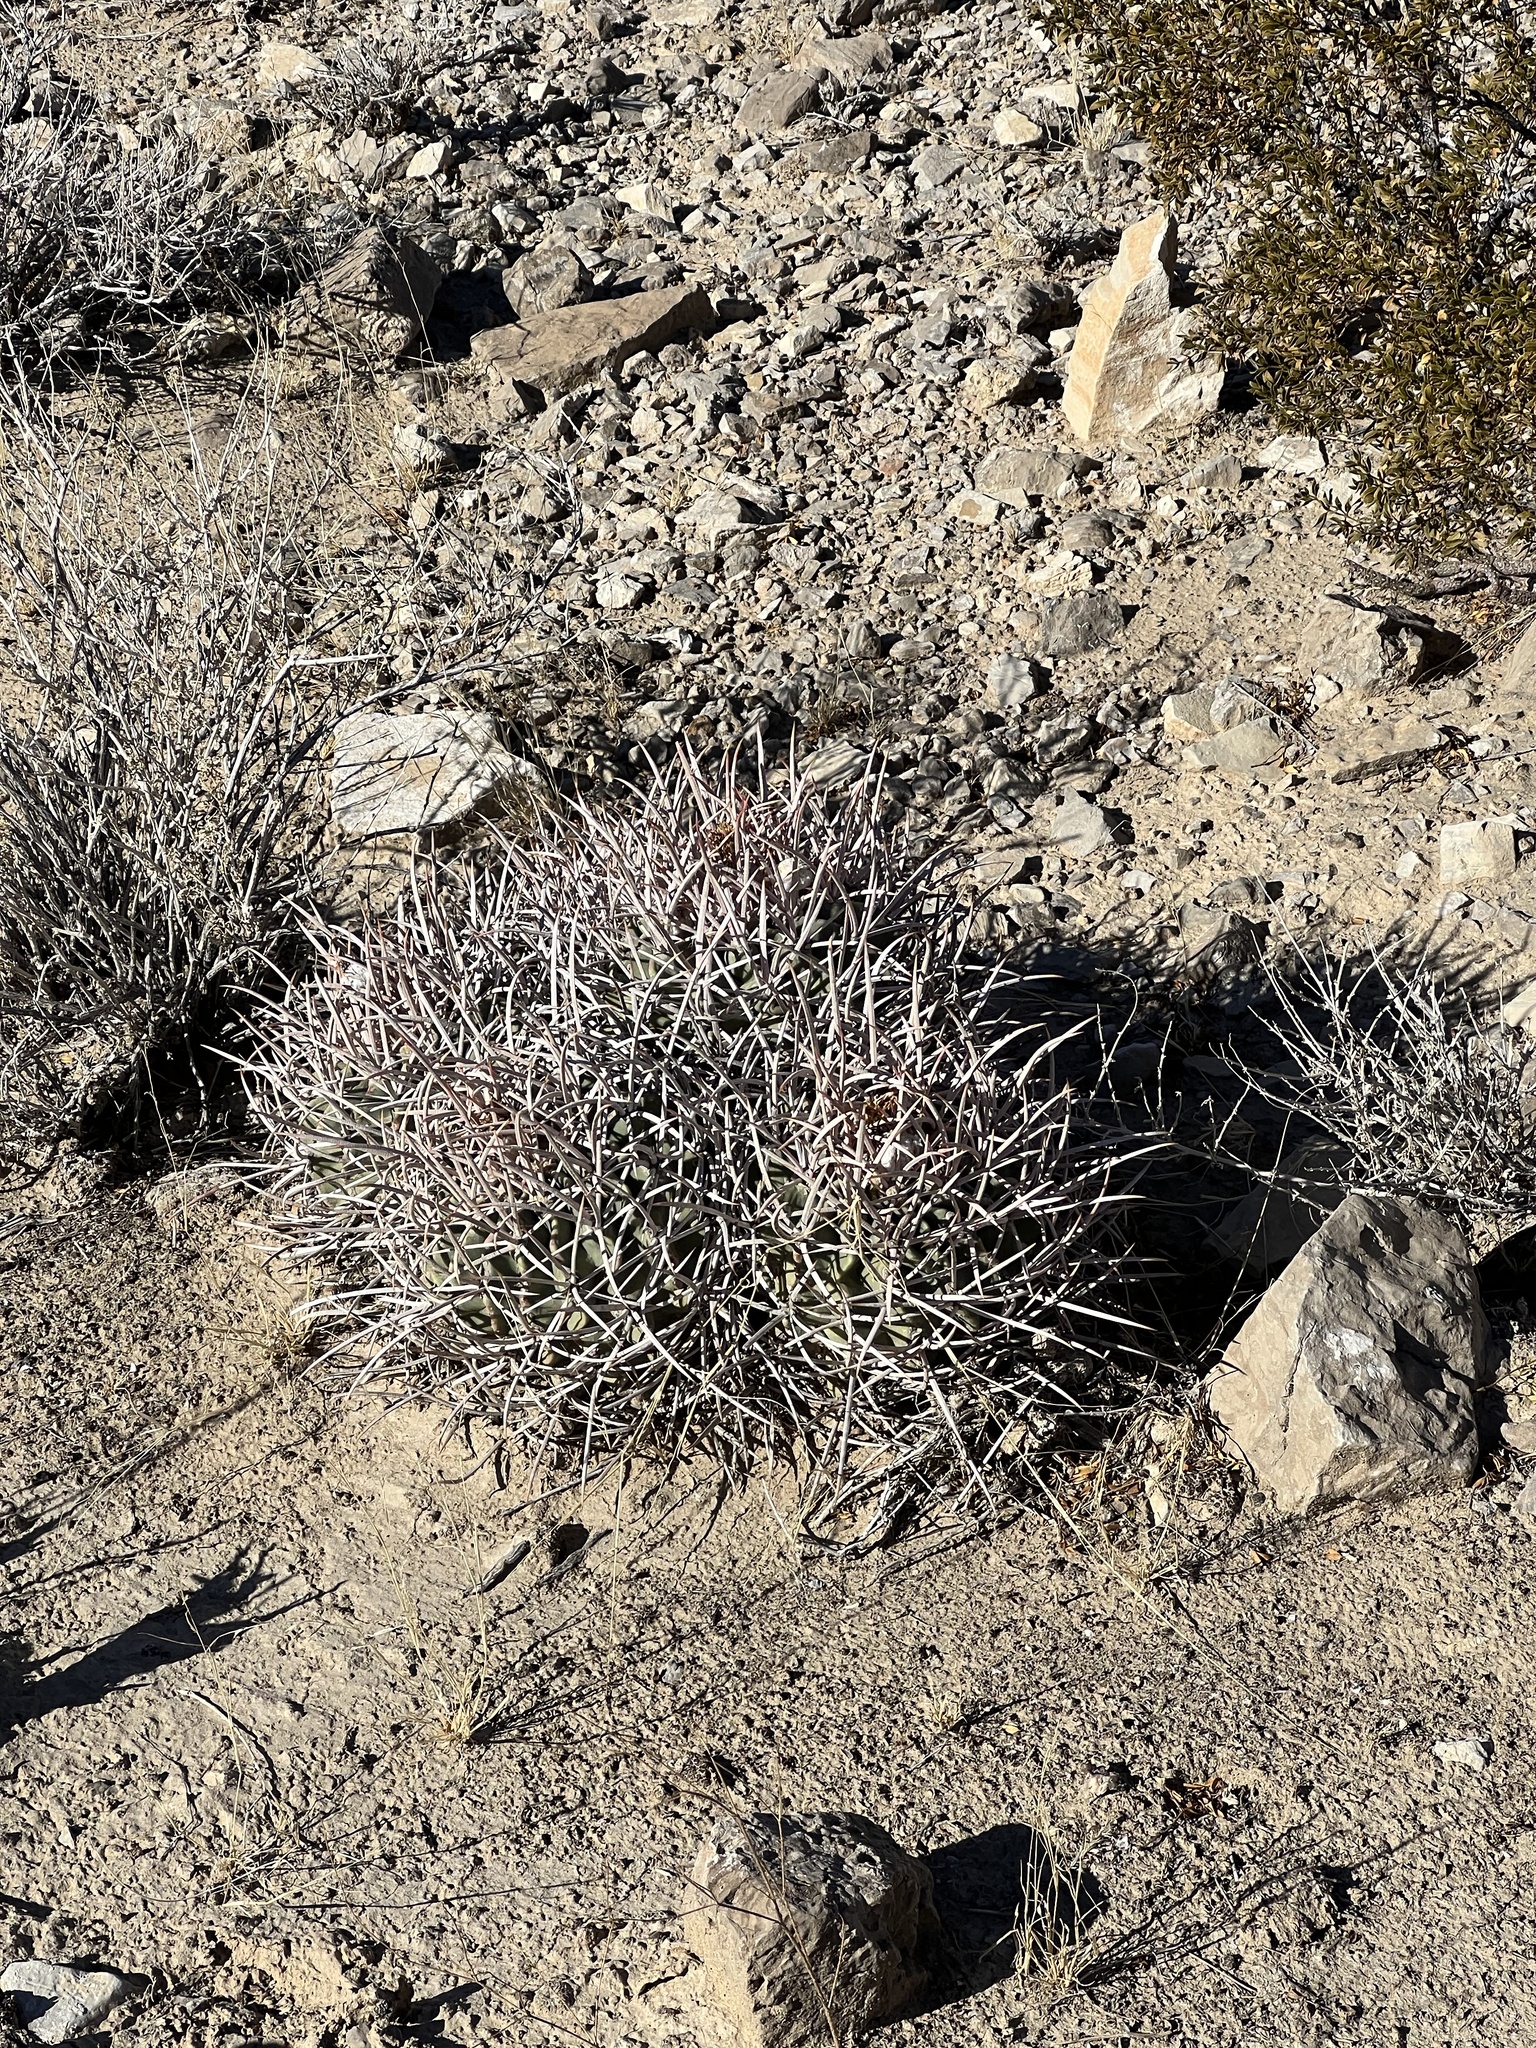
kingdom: Plantae
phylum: Tracheophyta
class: Magnoliopsida
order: Caryophyllales
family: Cactaceae
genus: Echinocactus
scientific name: Echinocactus polycephalus
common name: Cottontop cactus
